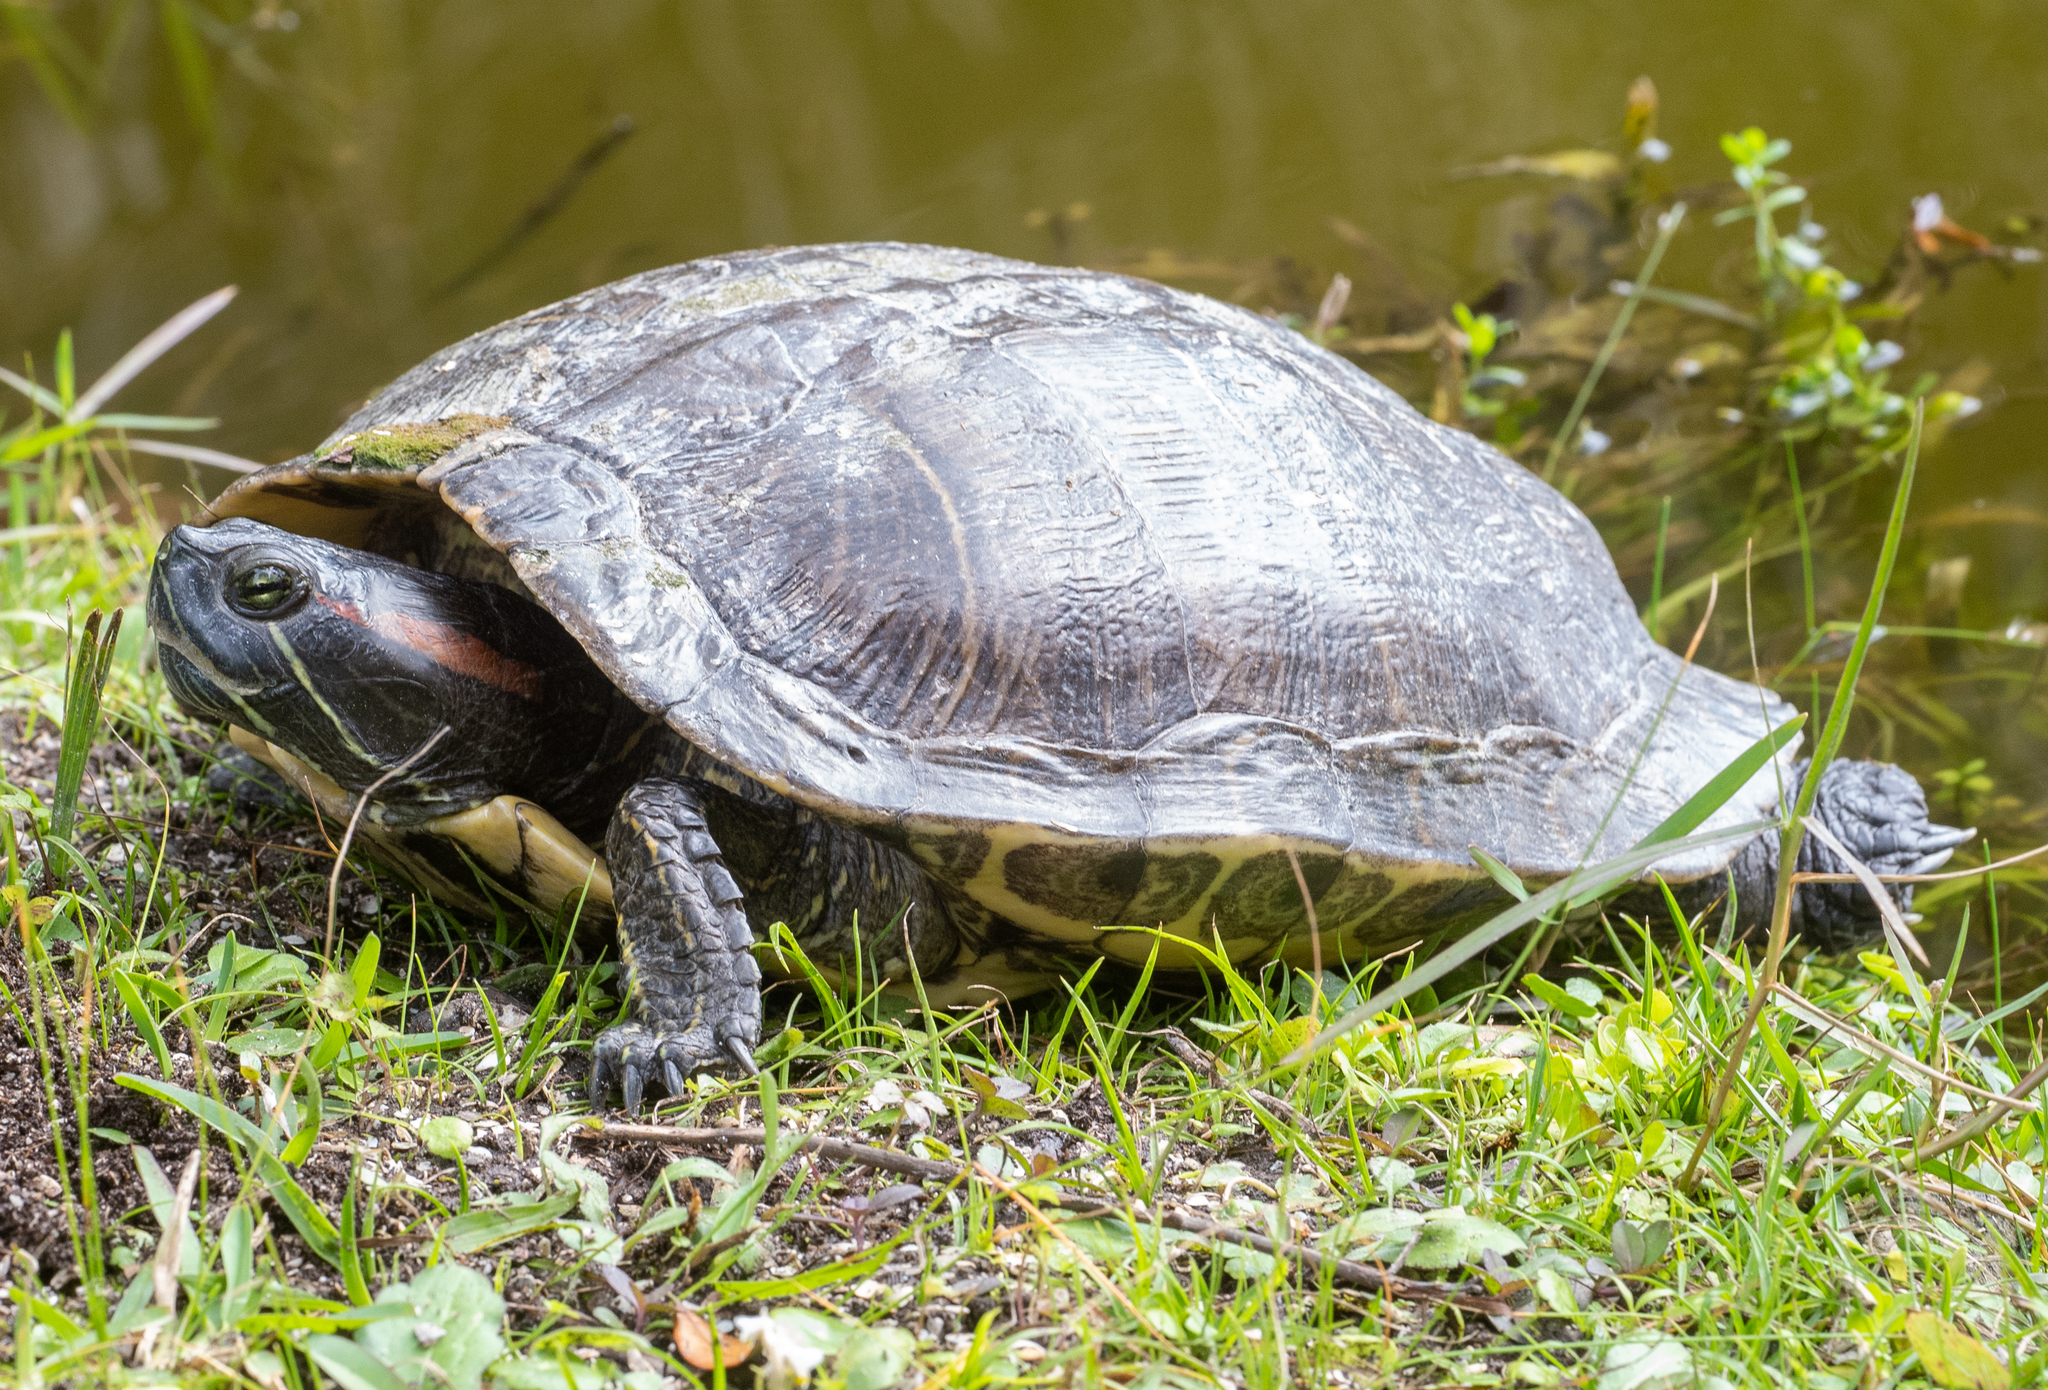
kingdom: Animalia
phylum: Chordata
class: Testudines
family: Emydidae
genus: Trachemys
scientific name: Trachemys scripta
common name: Slider
